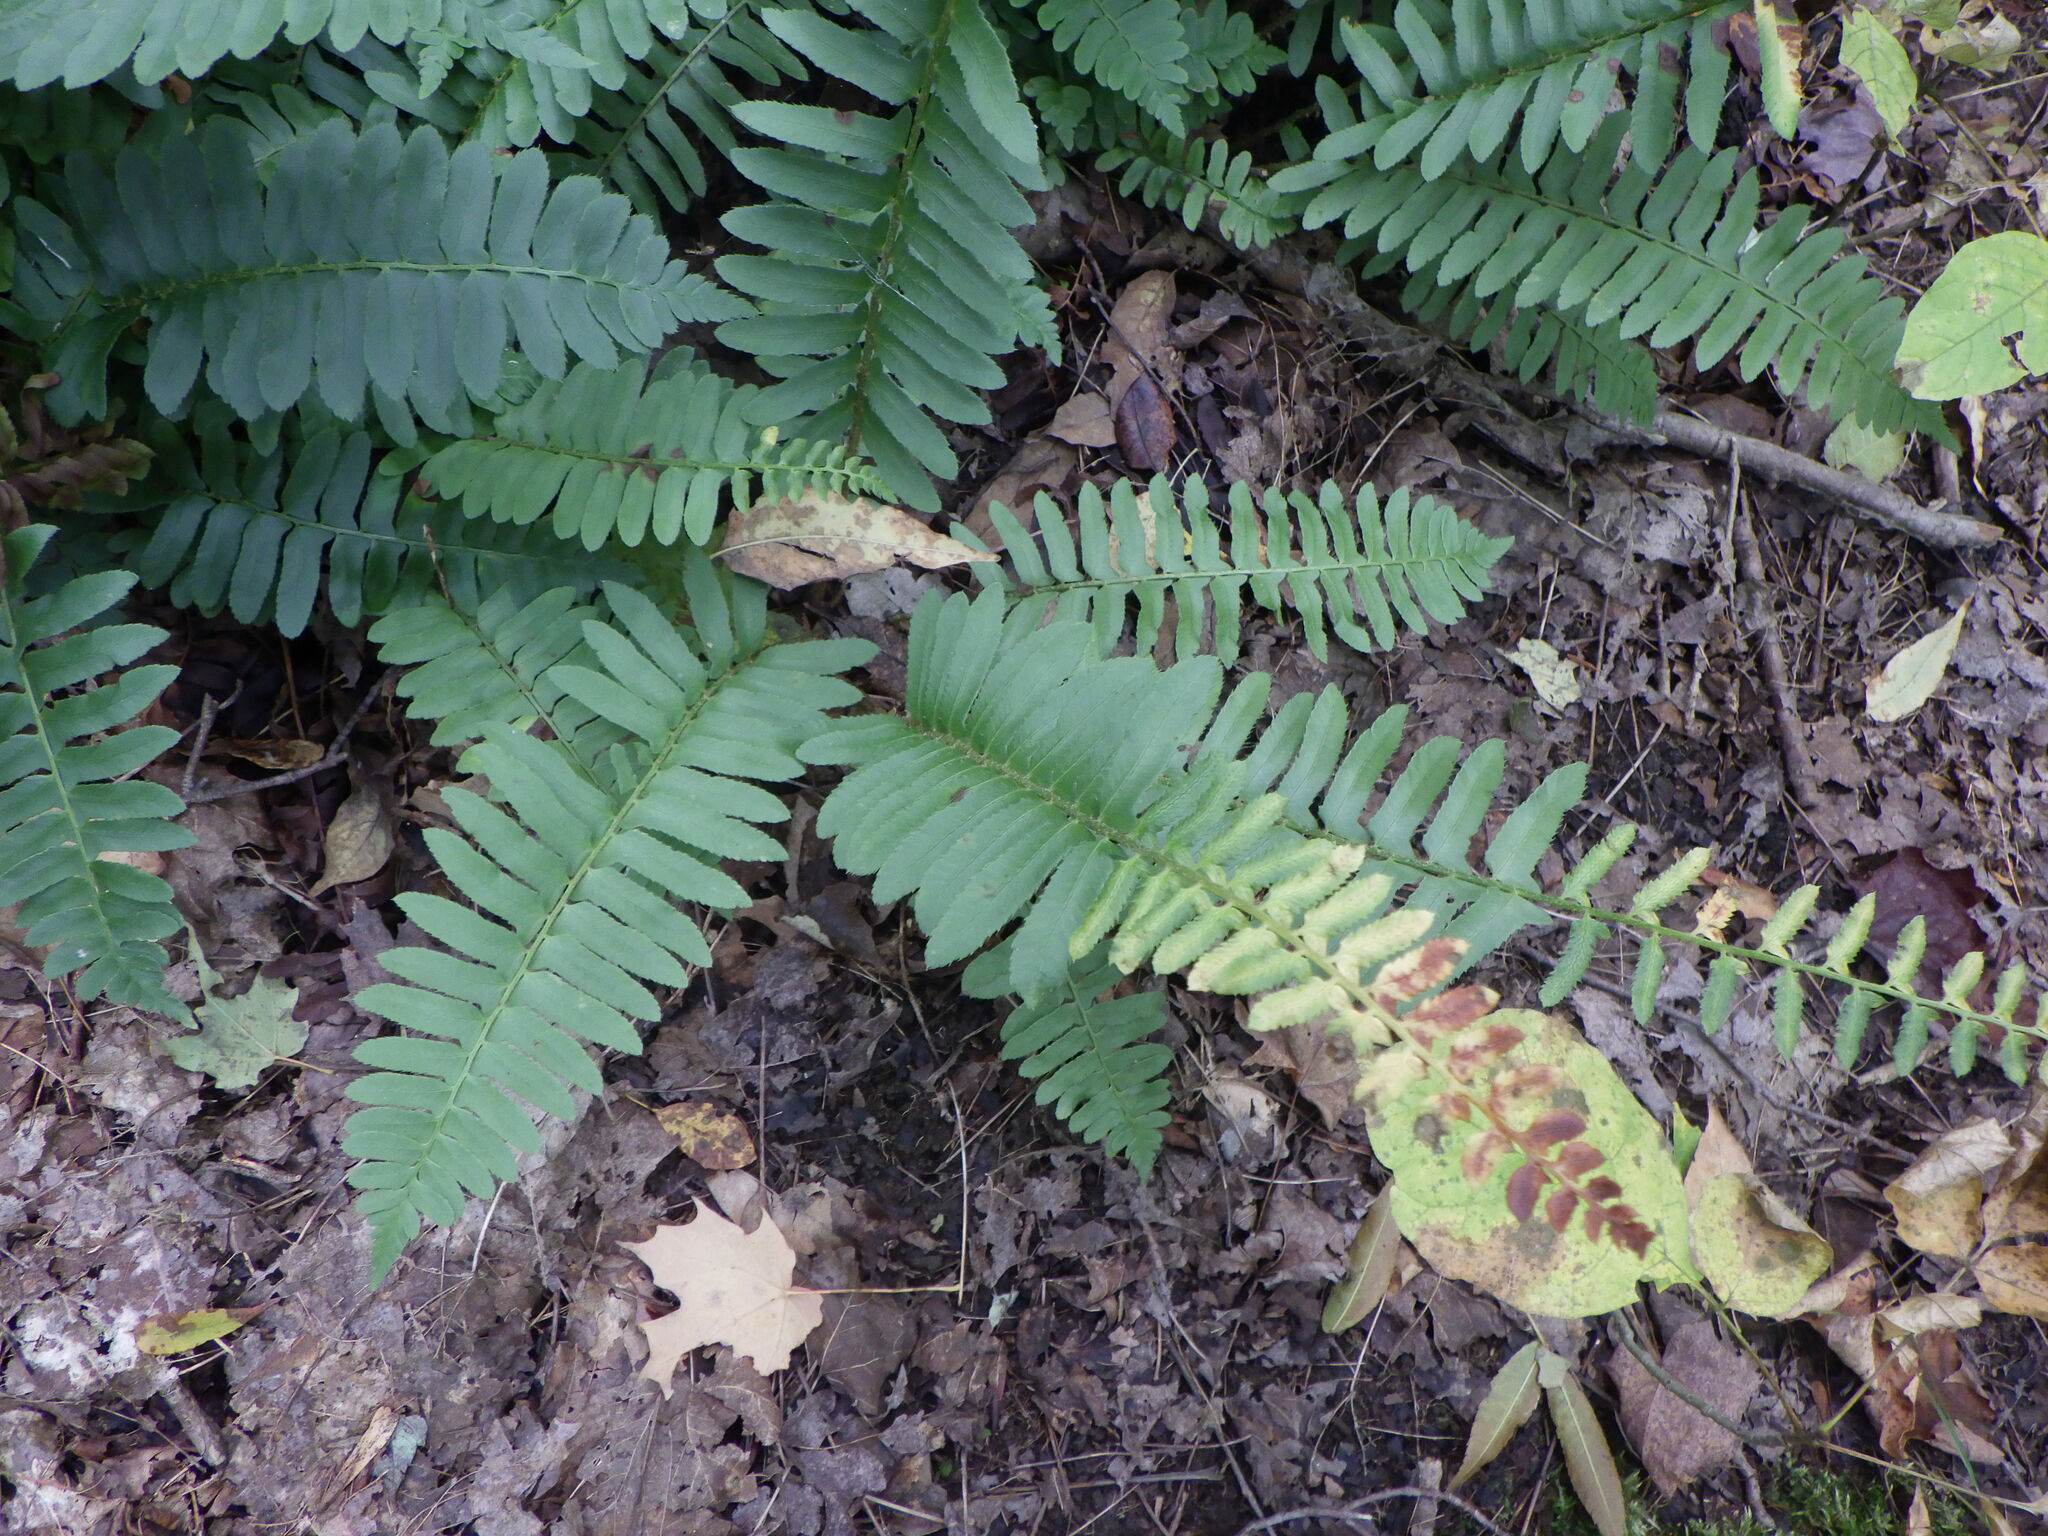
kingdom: Plantae
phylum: Tracheophyta
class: Polypodiopsida
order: Polypodiales
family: Dryopteridaceae
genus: Polystichum
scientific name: Polystichum acrostichoides
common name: Christmas fern
